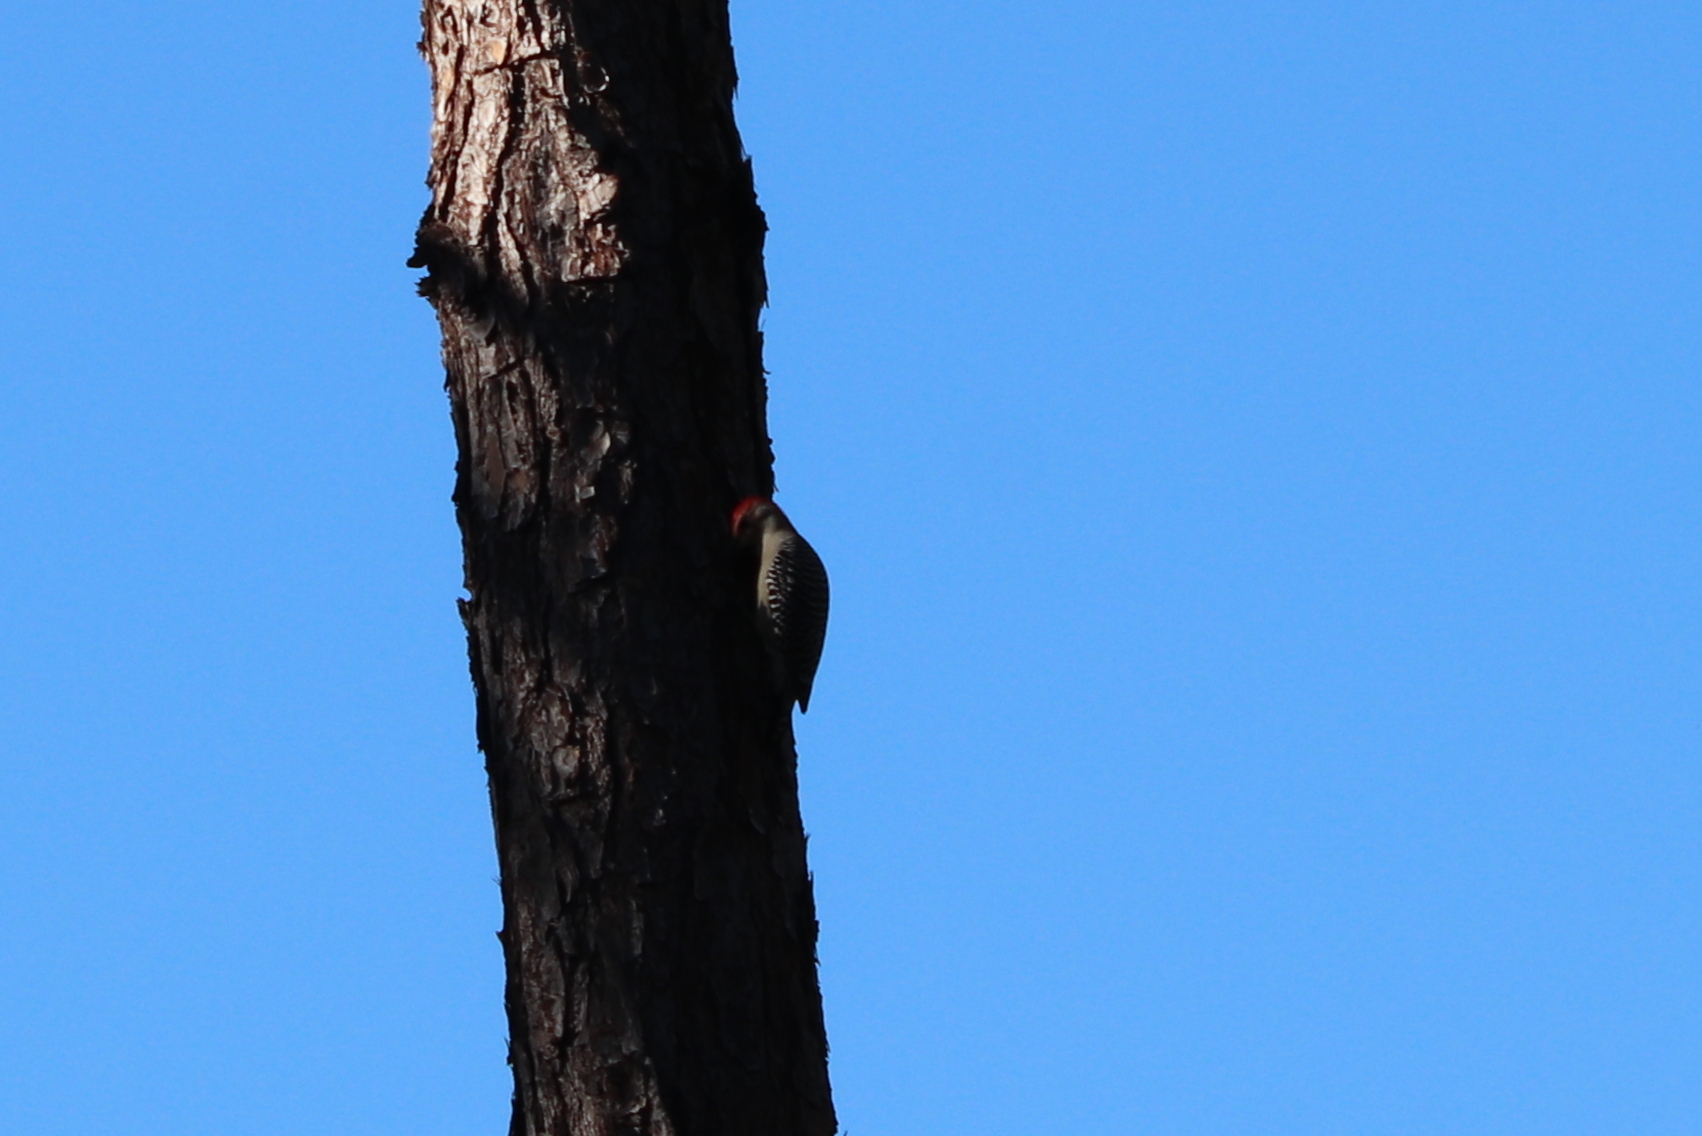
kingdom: Animalia
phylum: Chordata
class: Aves
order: Piciformes
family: Picidae
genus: Melanerpes
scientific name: Melanerpes carolinus
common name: Red-bellied woodpecker
